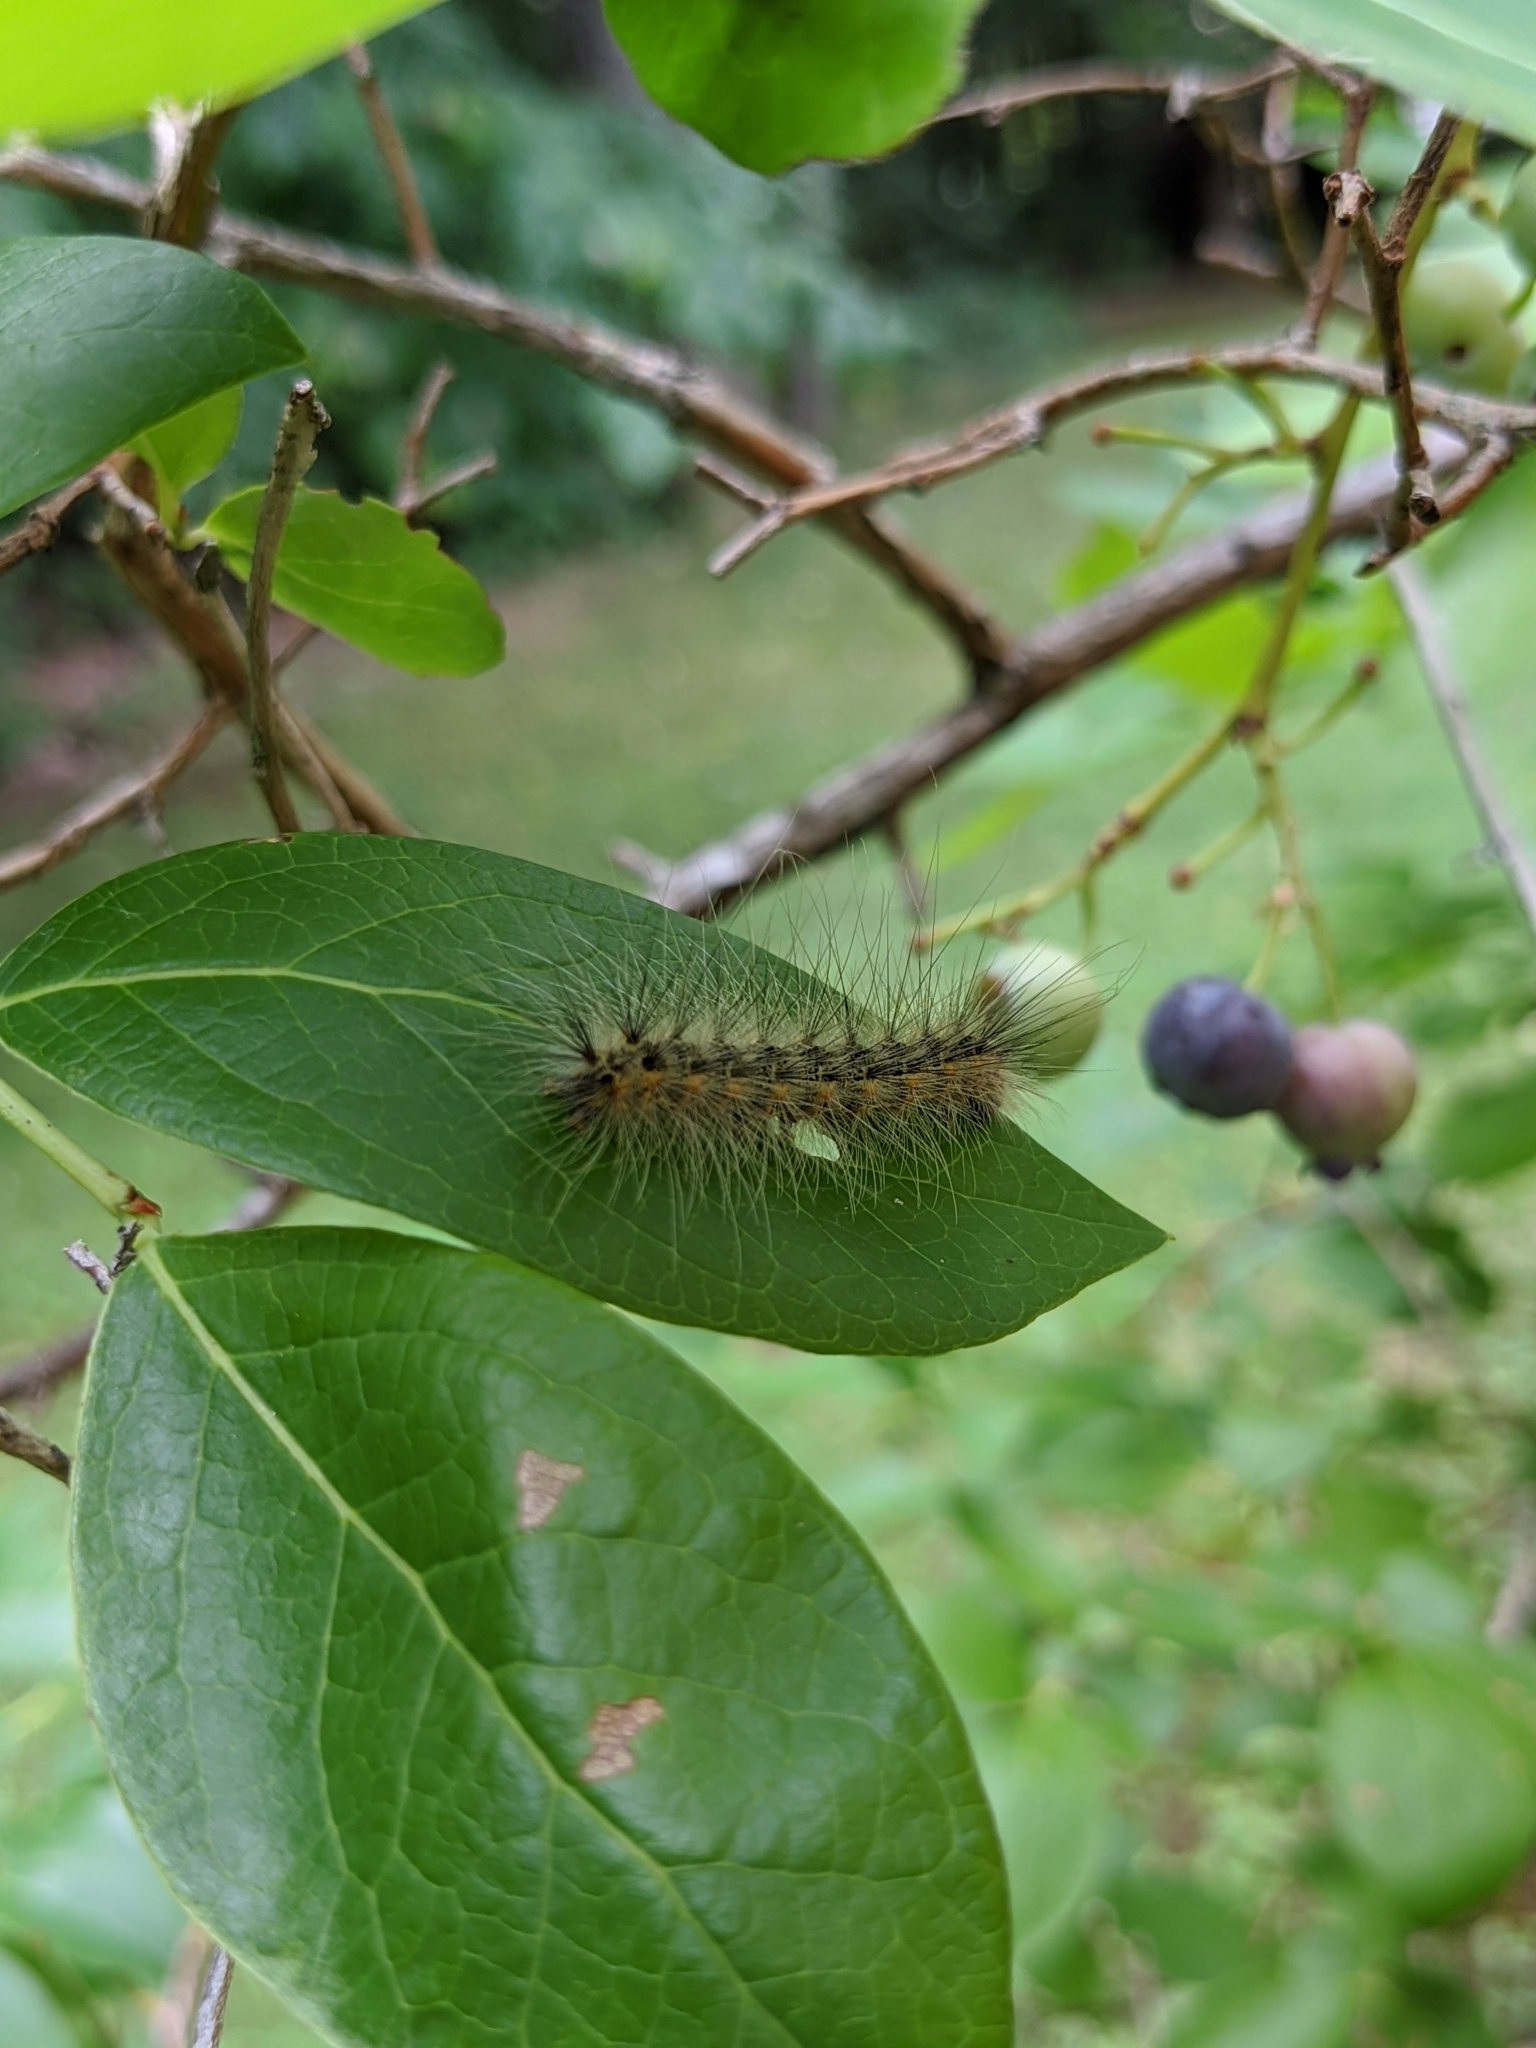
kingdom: Animalia
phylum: Arthropoda
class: Insecta
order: Lepidoptera
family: Erebidae
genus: Hyphantria
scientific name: Hyphantria cunea
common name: American white moth
